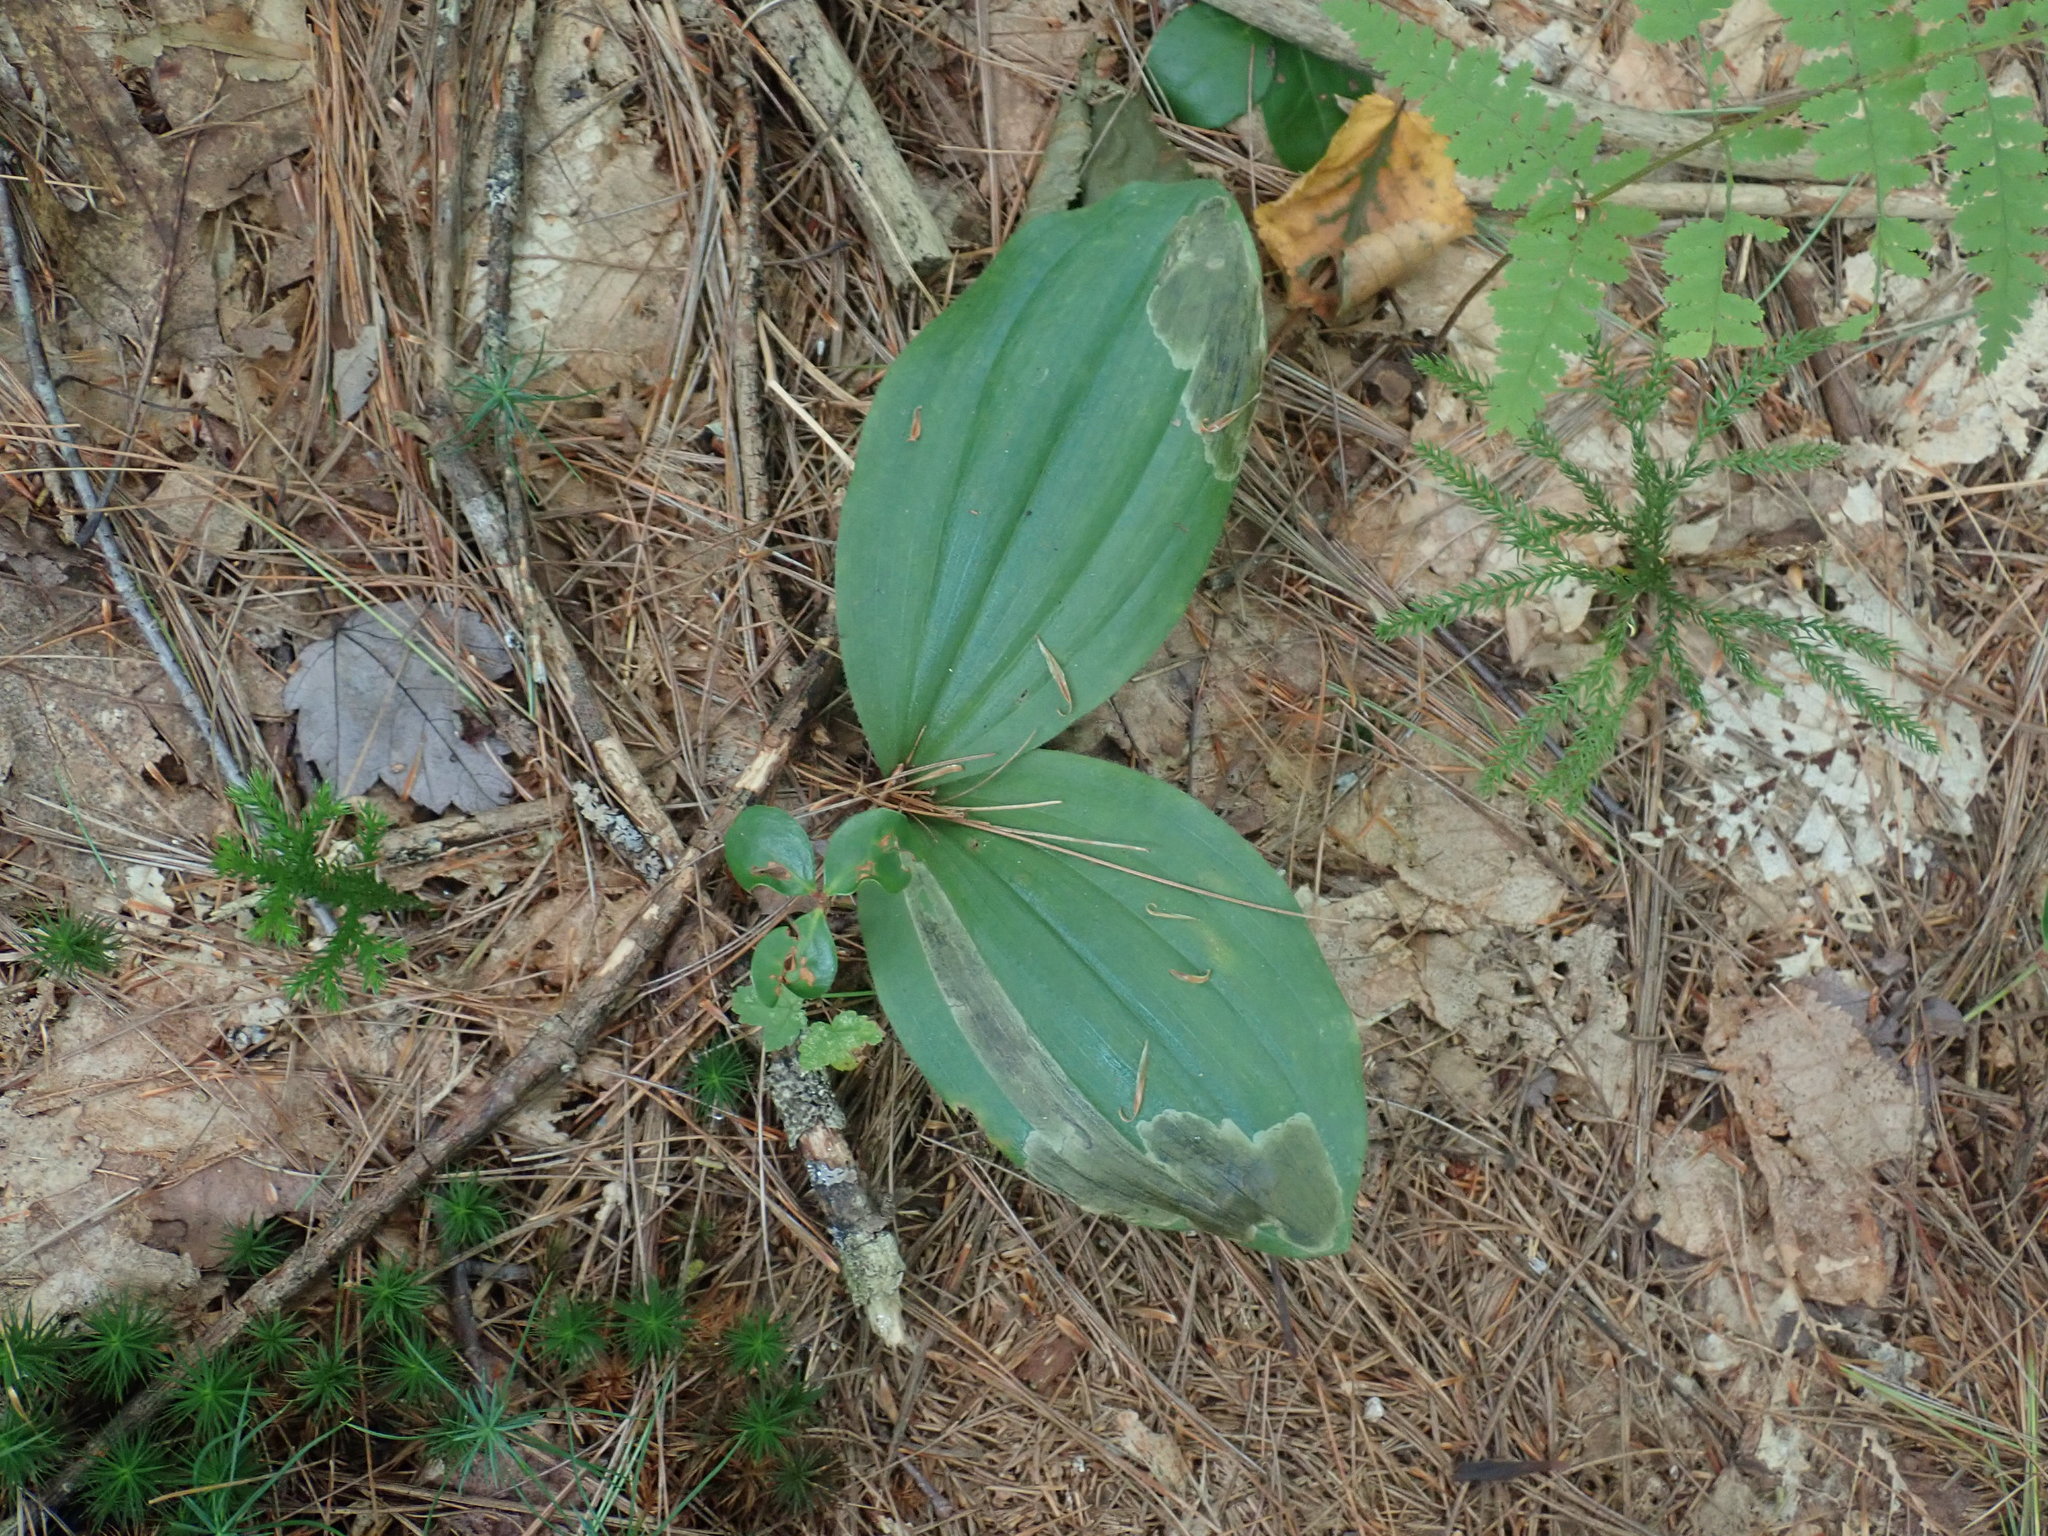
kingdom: Plantae
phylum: Tracheophyta
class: Liliopsida
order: Asparagales
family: Orchidaceae
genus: Cypripedium
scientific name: Cypripedium acaule
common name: Pink lady's-slipper
